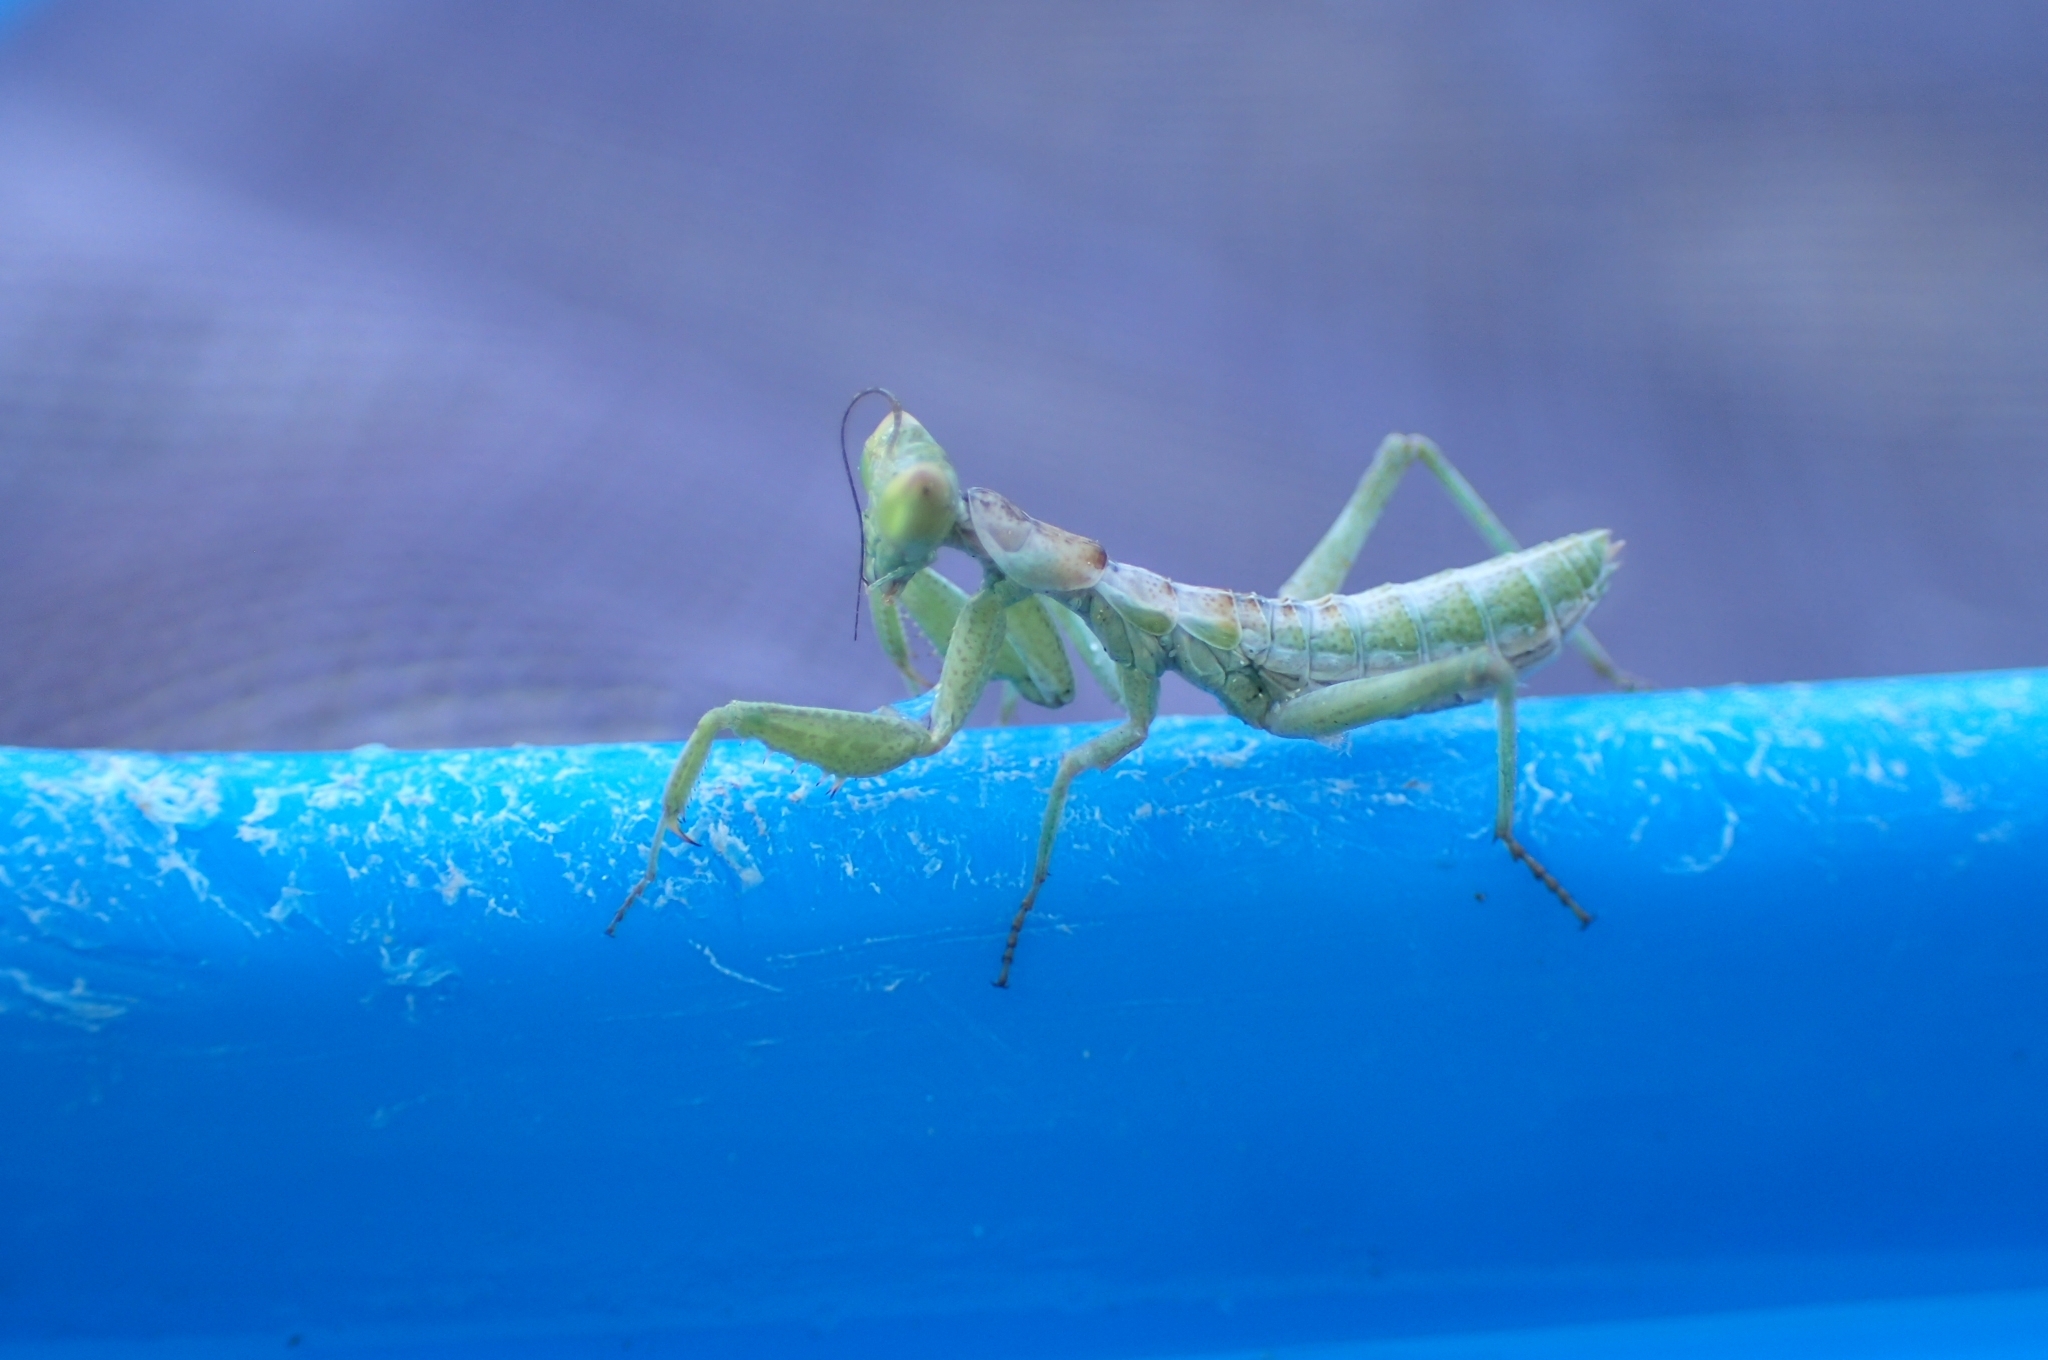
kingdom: Animalia
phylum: Arthropoda
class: Insecta
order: Mantodea
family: Amelidae
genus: Ameles
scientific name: Ameles spallanzania
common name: European dwarf mantis
